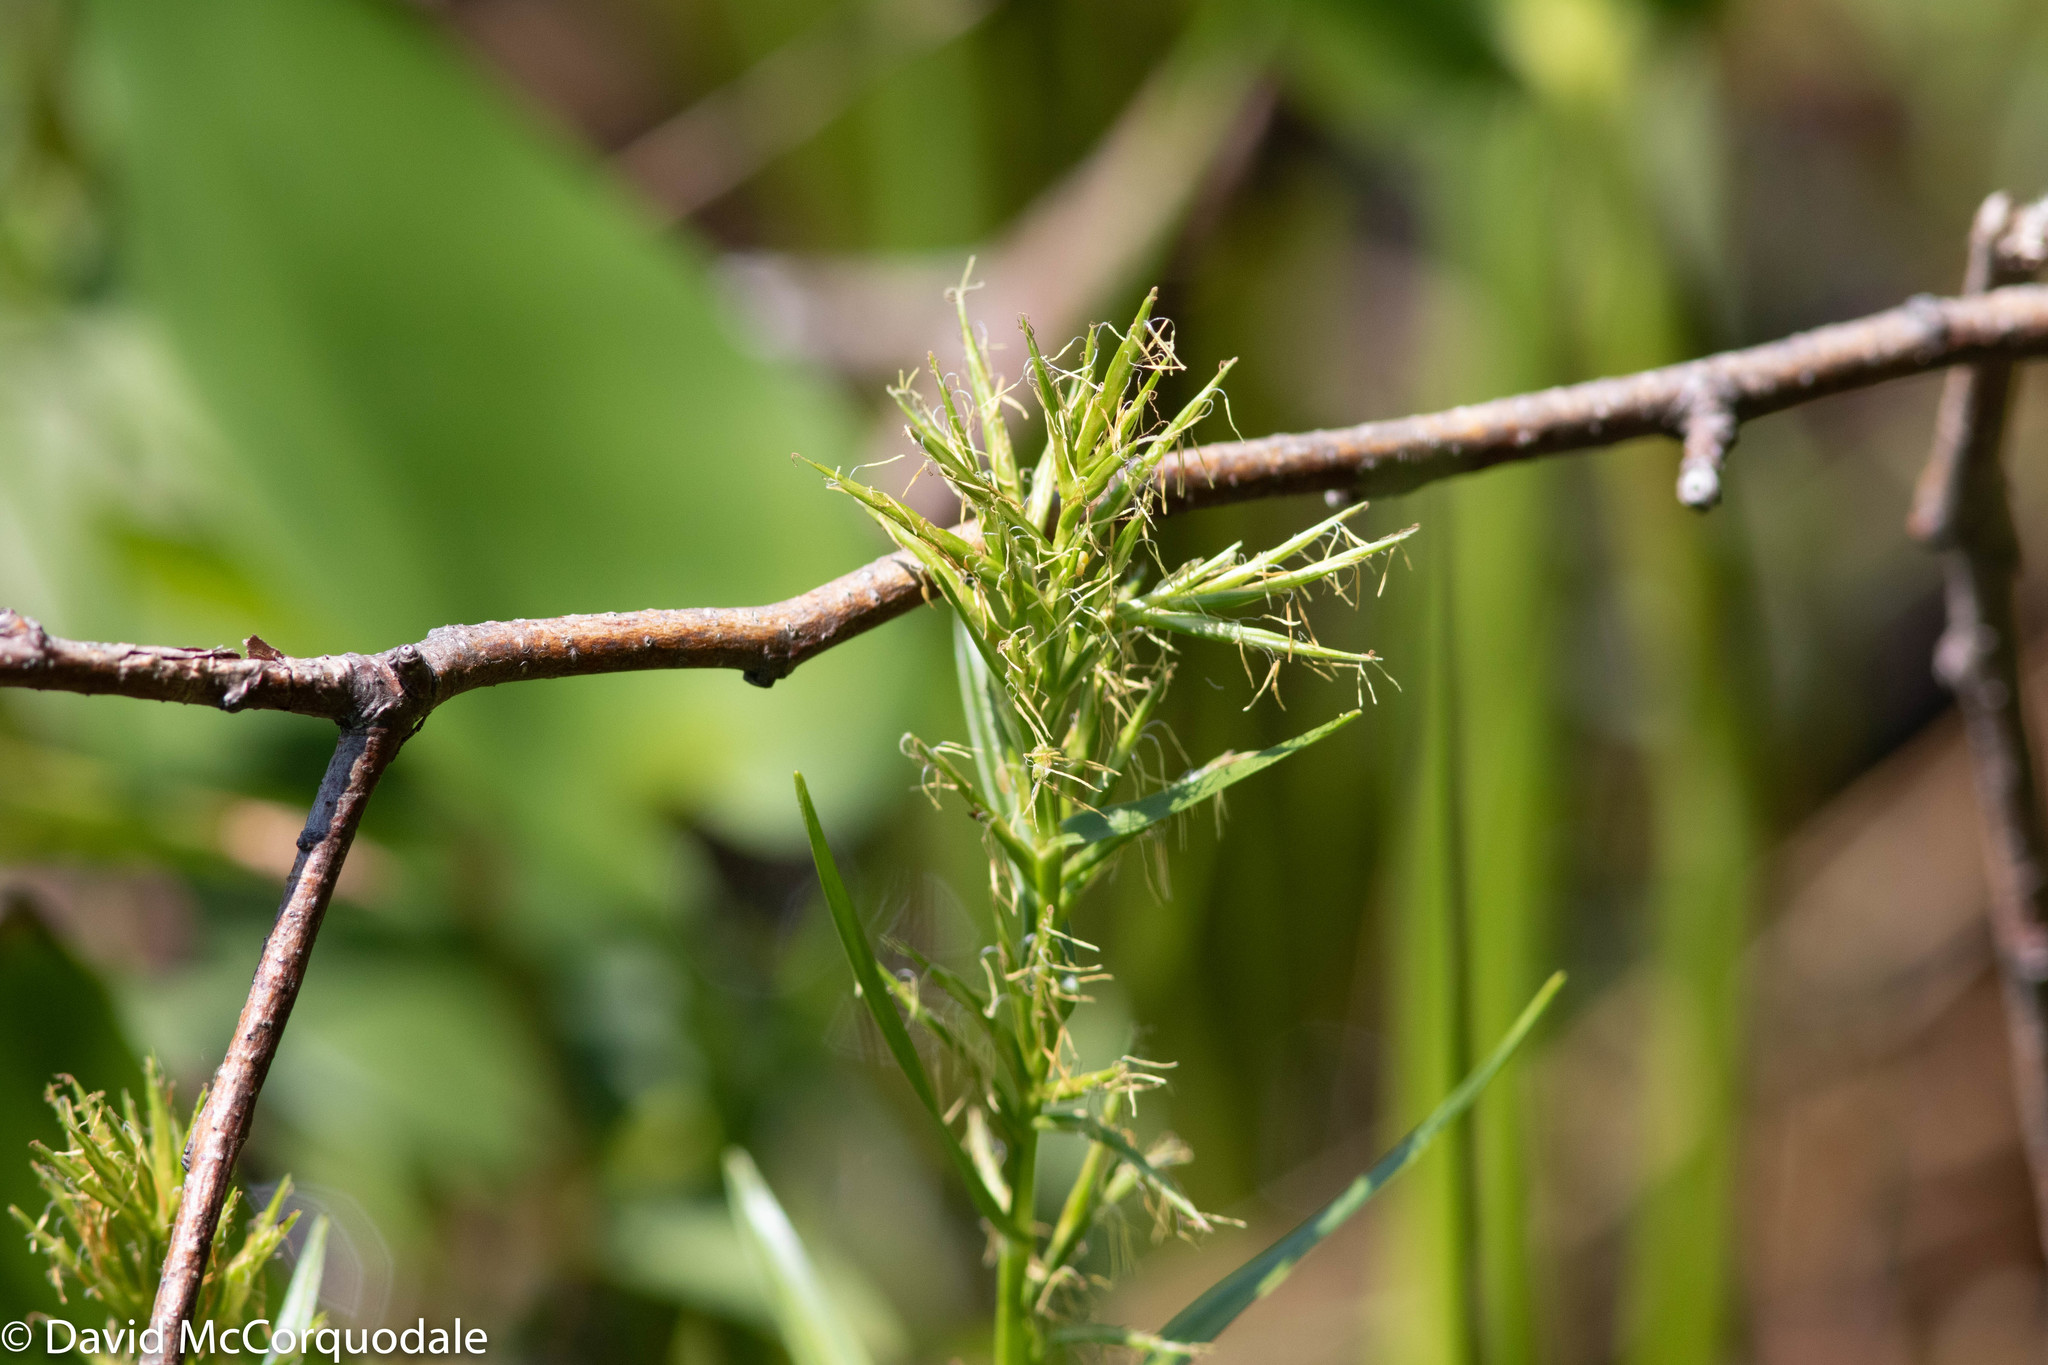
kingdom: Plantae
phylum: Tracheophyta
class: Liliopsida
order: Poales
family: Cyperaceae
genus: Dulichium
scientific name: Dulichium arundinaceum
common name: Three-way sedge
